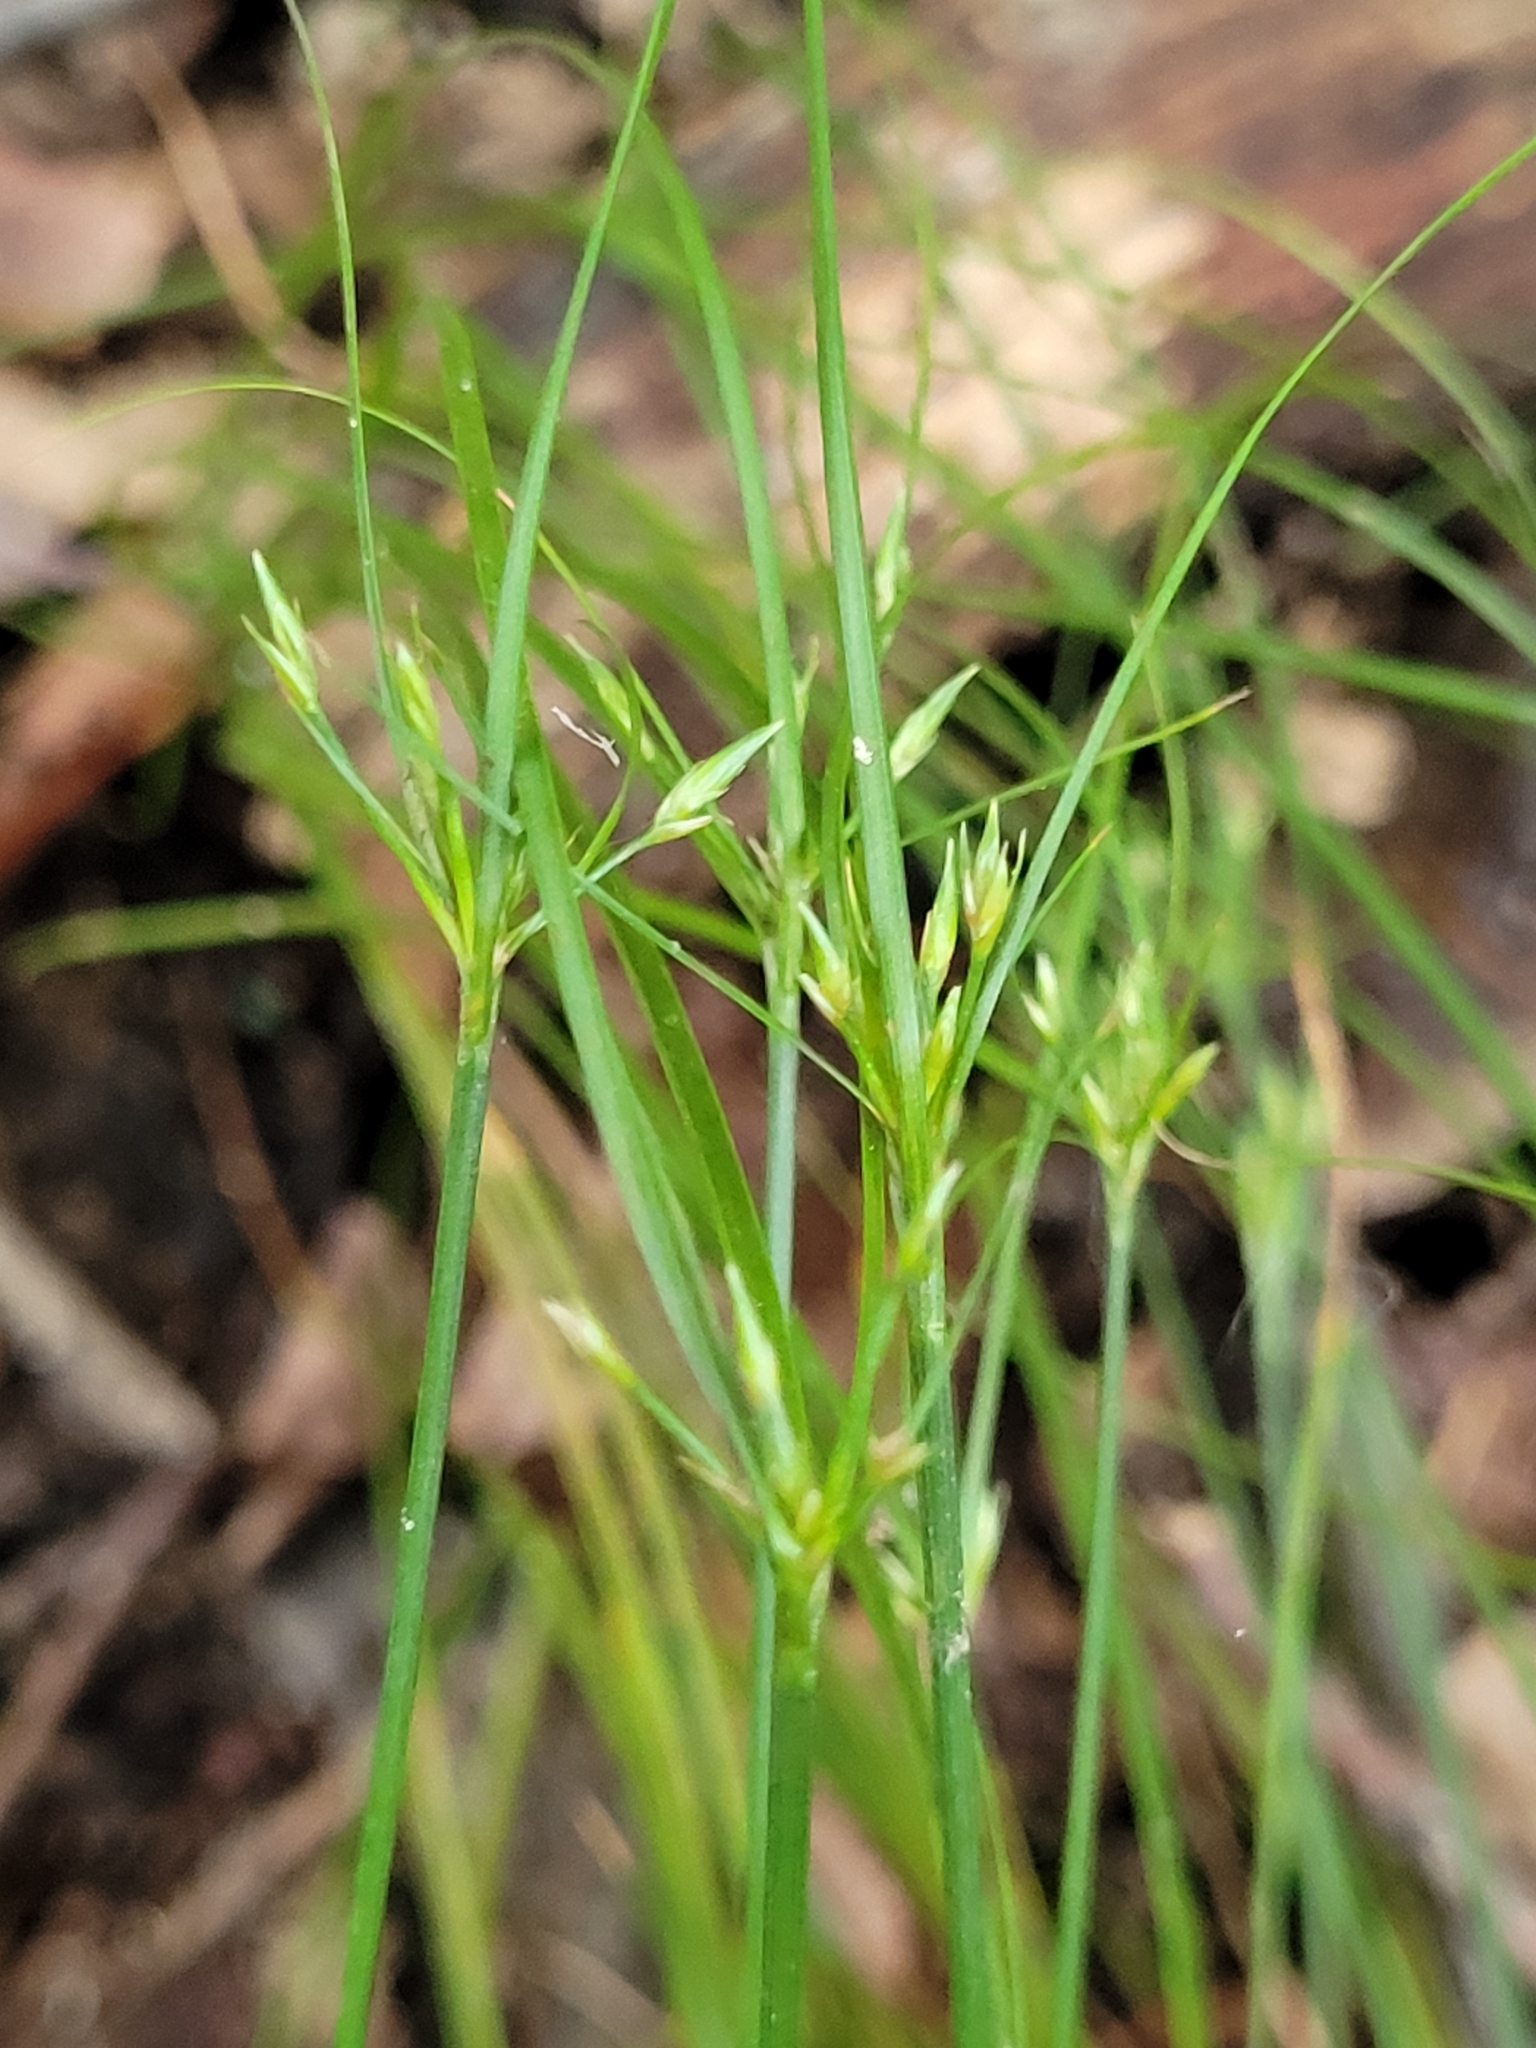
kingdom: Plantae
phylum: Tracheophyta
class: Liliopsida
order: Poales
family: Juncaceae
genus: Juncus
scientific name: Juncus tenuis
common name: Slender rush
